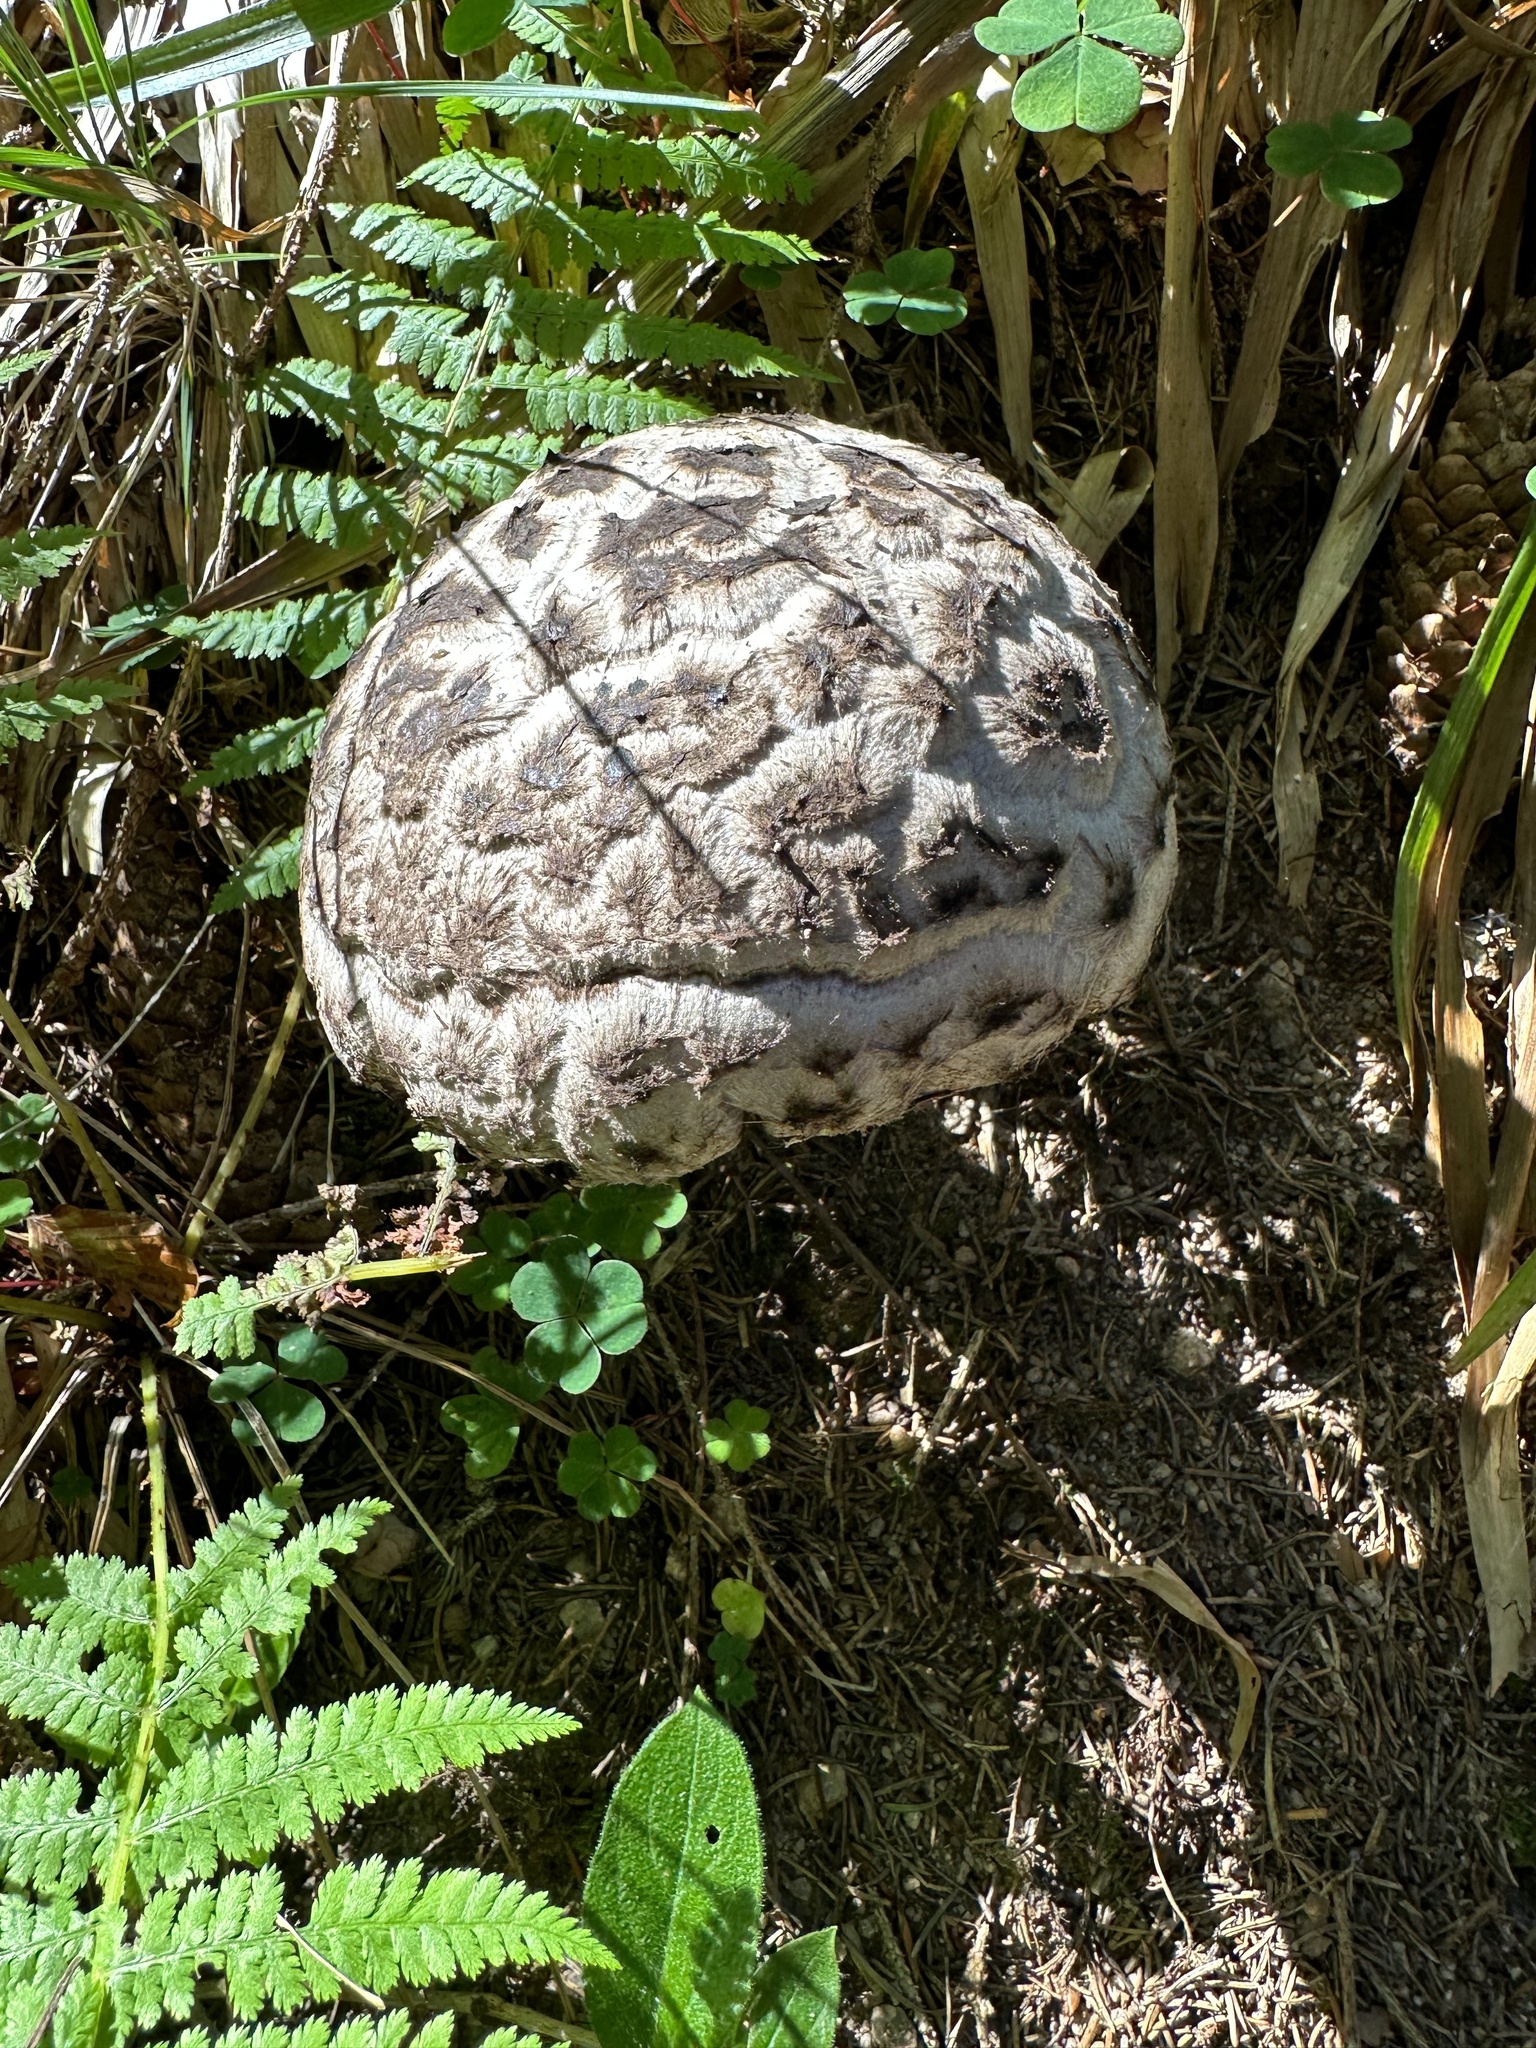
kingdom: Fungi
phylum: Basidiomycota
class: Agaricomycetes
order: Boletales
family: Boletaceae
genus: Strobilomyces
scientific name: Strobilomyces strobilaceus
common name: Old man of the woods
